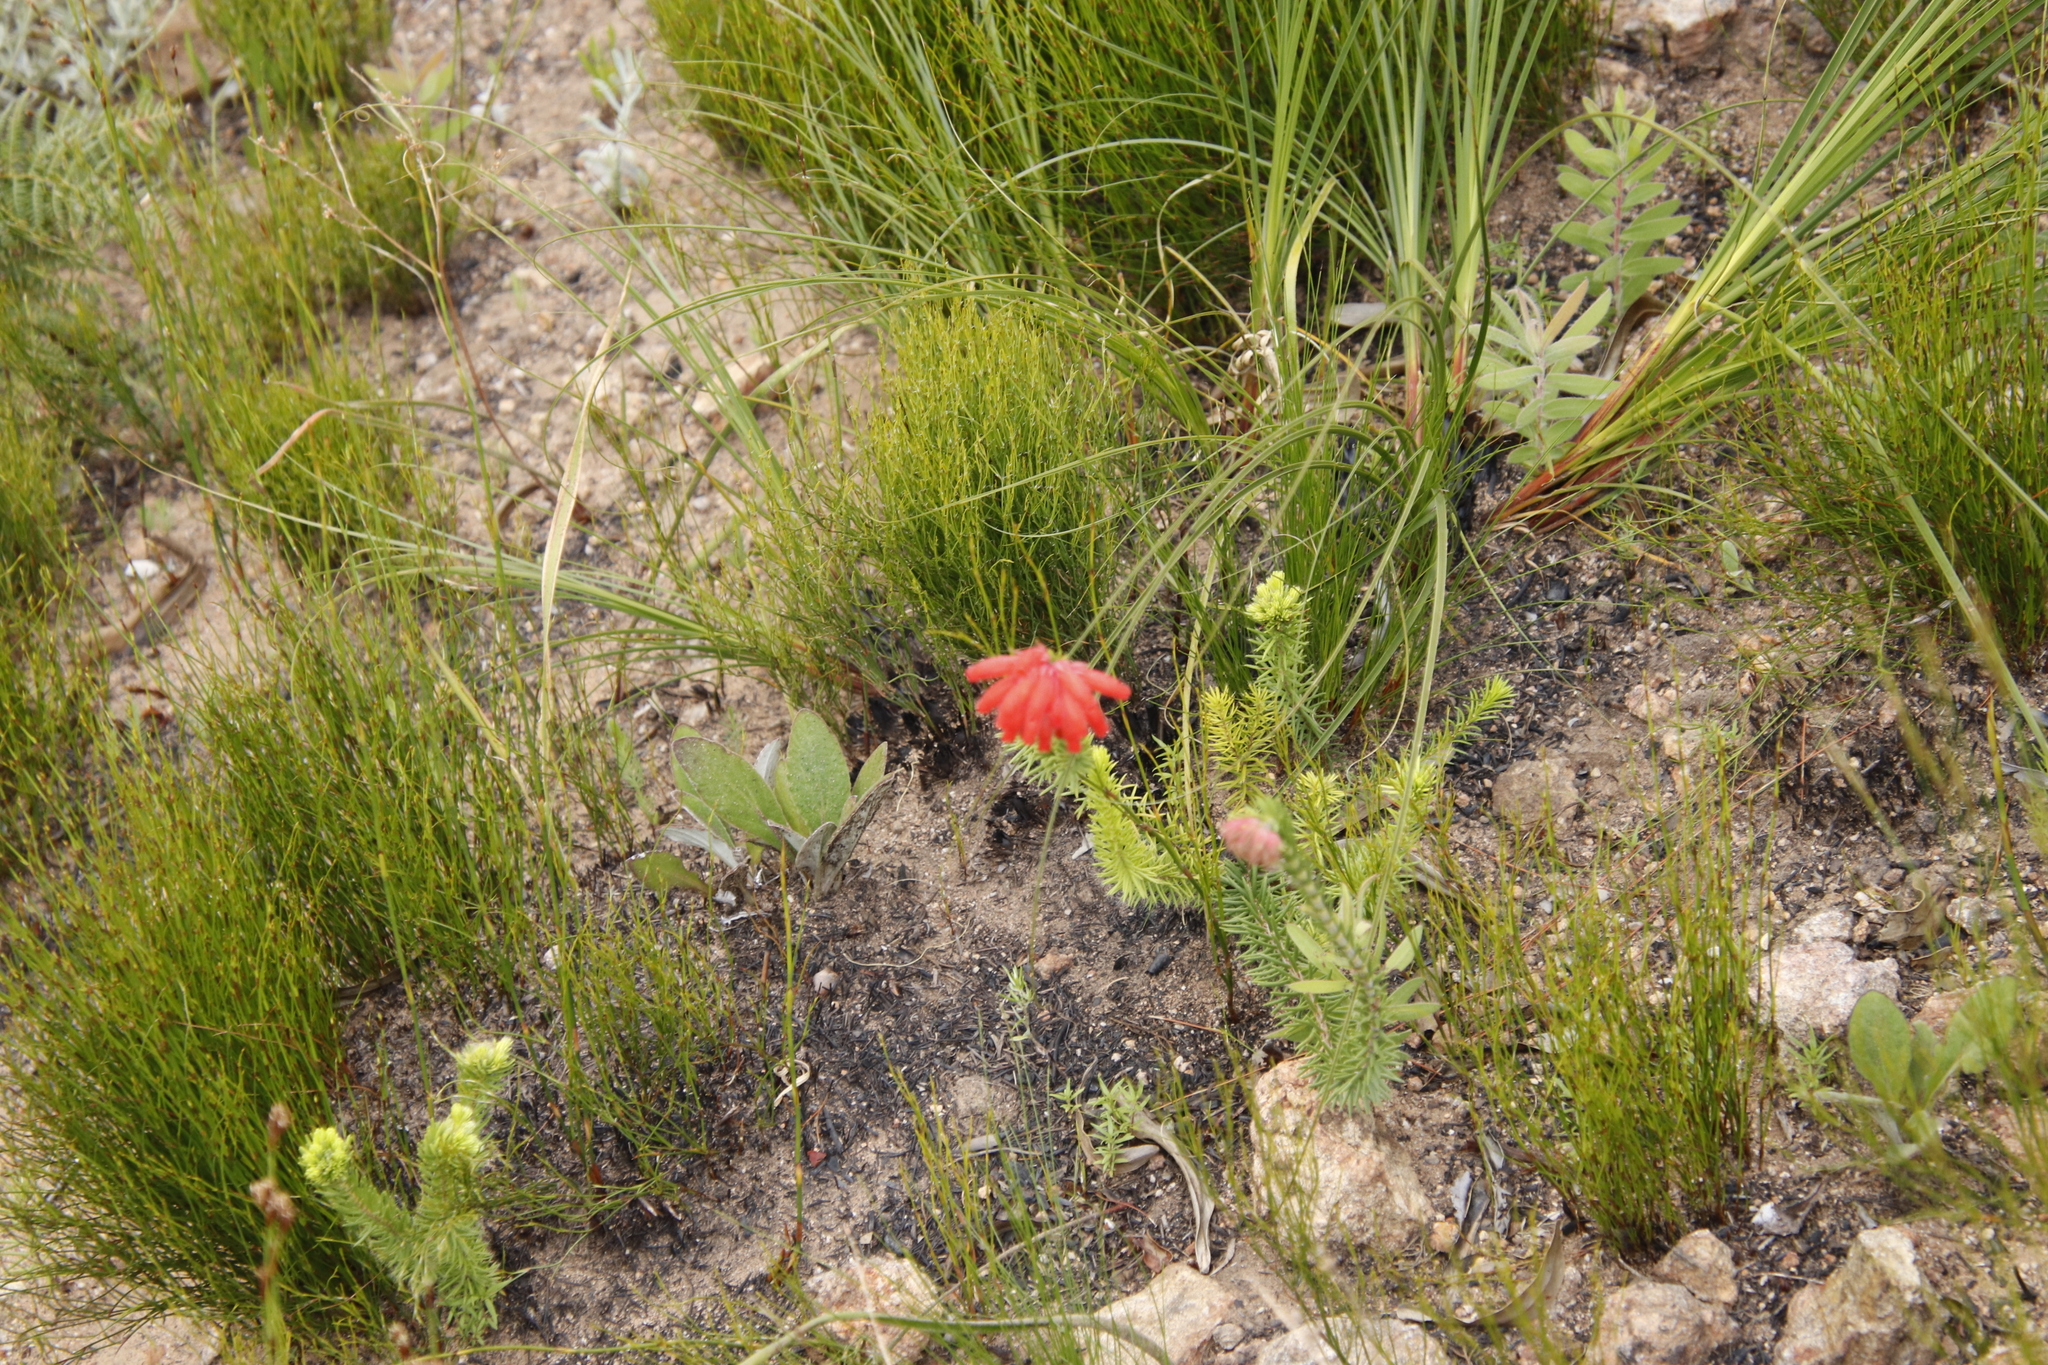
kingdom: Plantae
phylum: Tracheophyta
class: Magnoliopsida
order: Ericales
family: Ericaceae
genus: Erica
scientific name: Erica cerinthoides
